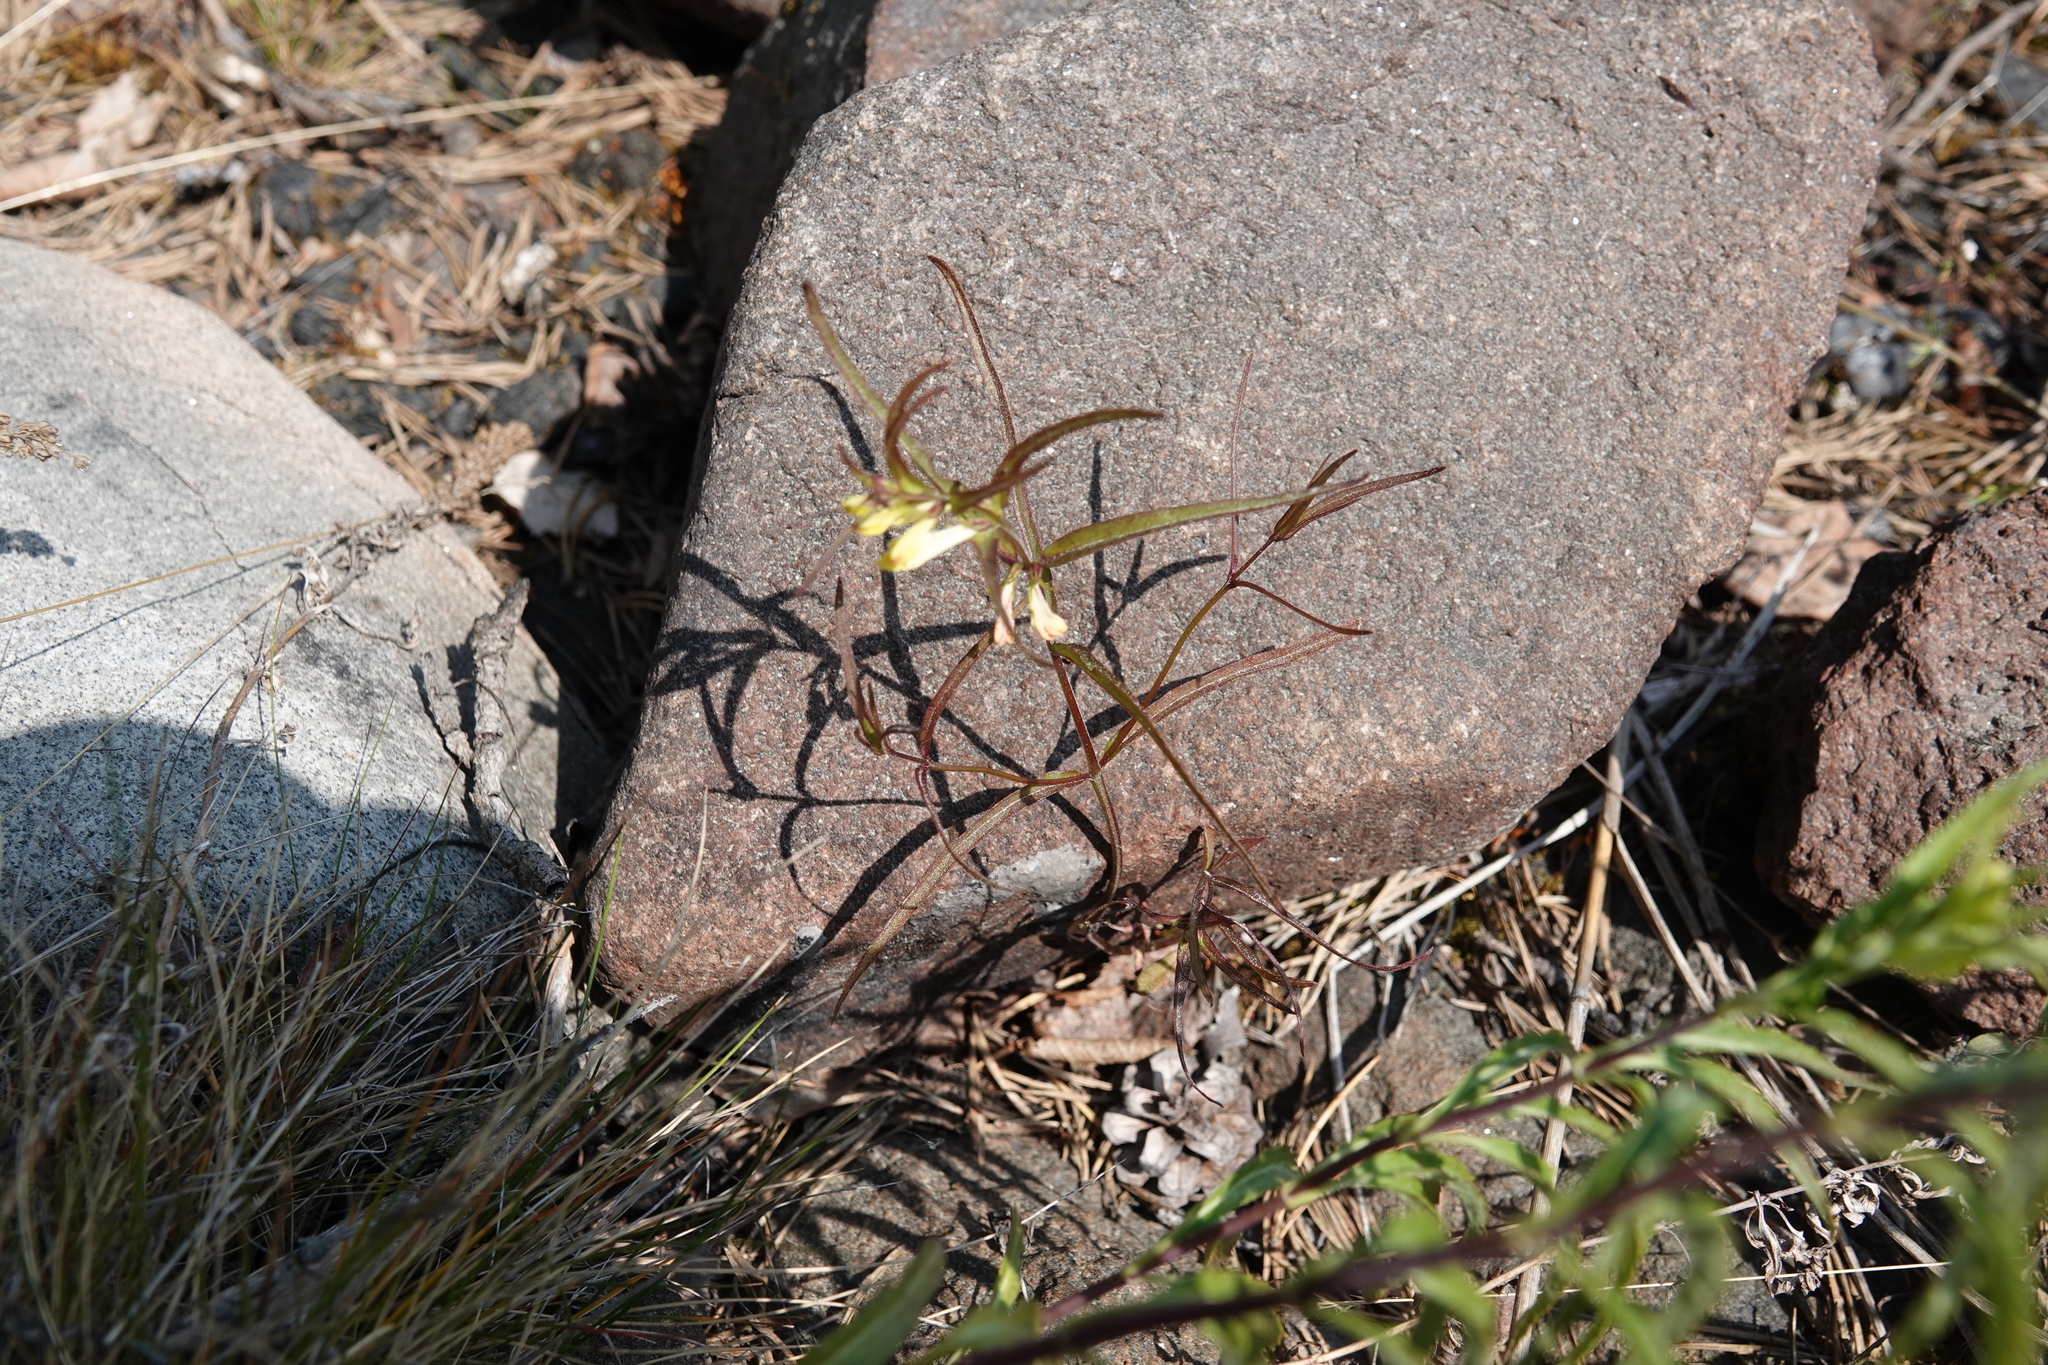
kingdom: Plantae
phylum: Tracheophyta
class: Magnoliopsida
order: Lamiales
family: Orobanchaceae
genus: Melampyrum
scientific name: Melampyrum pratense
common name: Common cow-wheat
